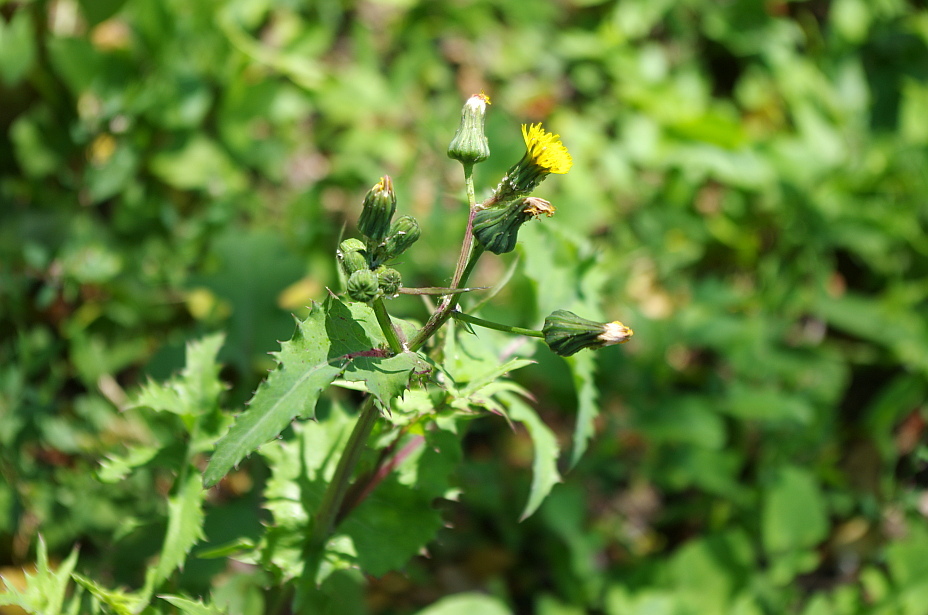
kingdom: Plantae
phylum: Tracheophyta
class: Magnoliopsida
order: Asterales
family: Asteraceae
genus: Sonchus
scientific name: Sonchus oleraceus
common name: Common sowthistle
